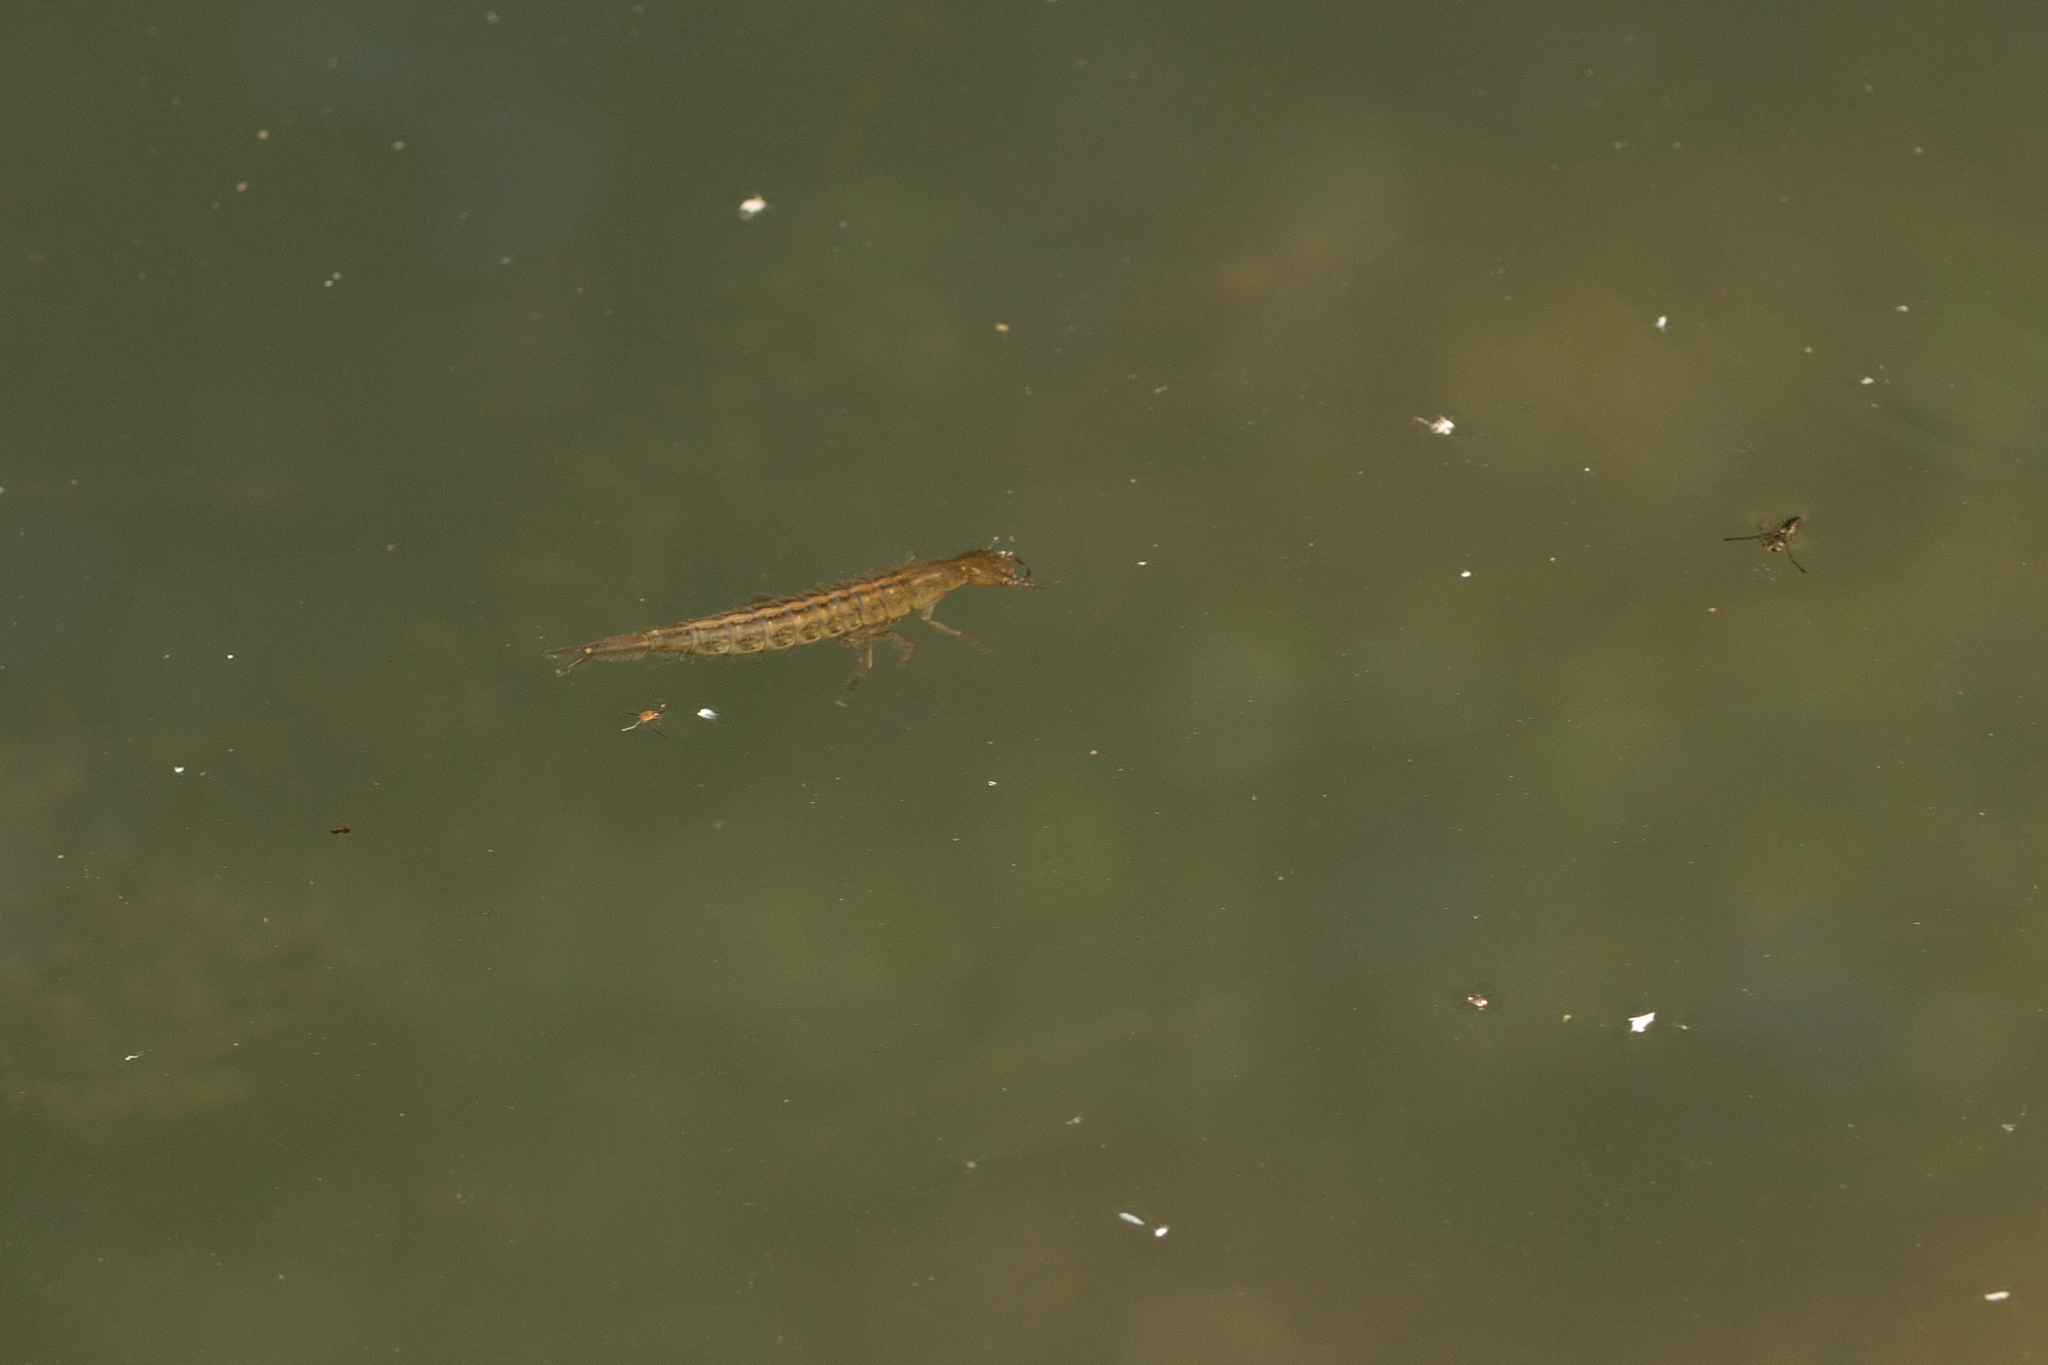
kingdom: Animalia
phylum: Arthropoda
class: Insecta
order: Coleoptera
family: Dytiscidae
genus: Dytiscus
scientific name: Dytiscus
